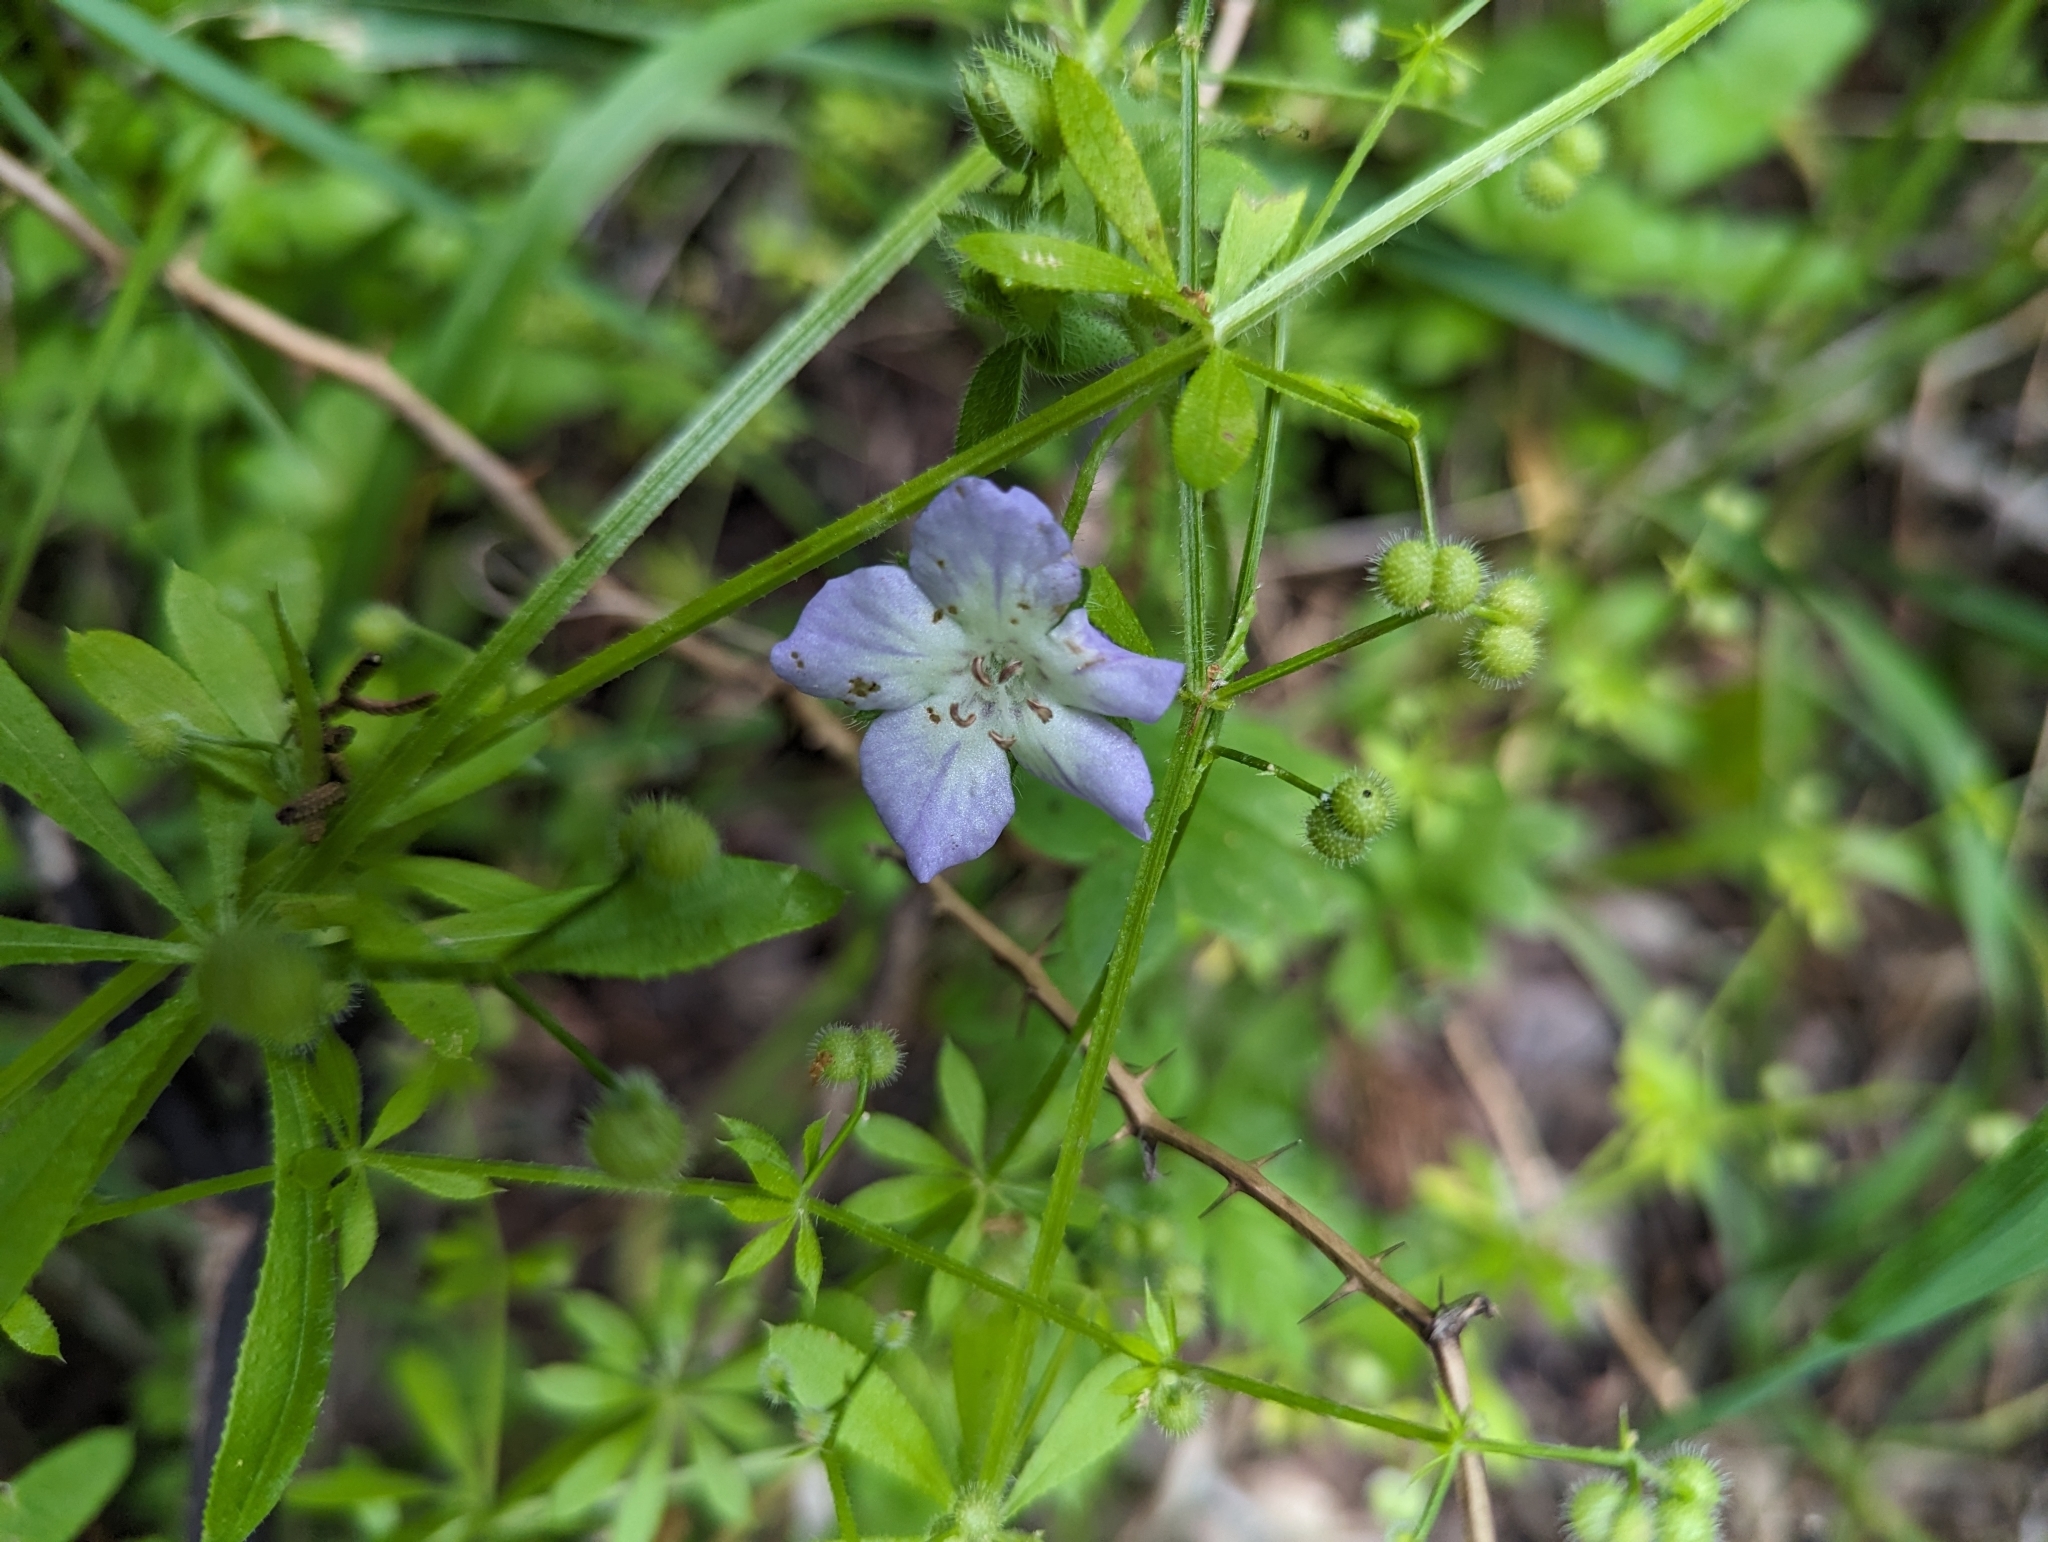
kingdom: Plantae
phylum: Tracheophyta
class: Magnoliopsida
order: Boraginales
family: Hydrophyllaceae
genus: Nemophila
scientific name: Nemophila phacelioides
